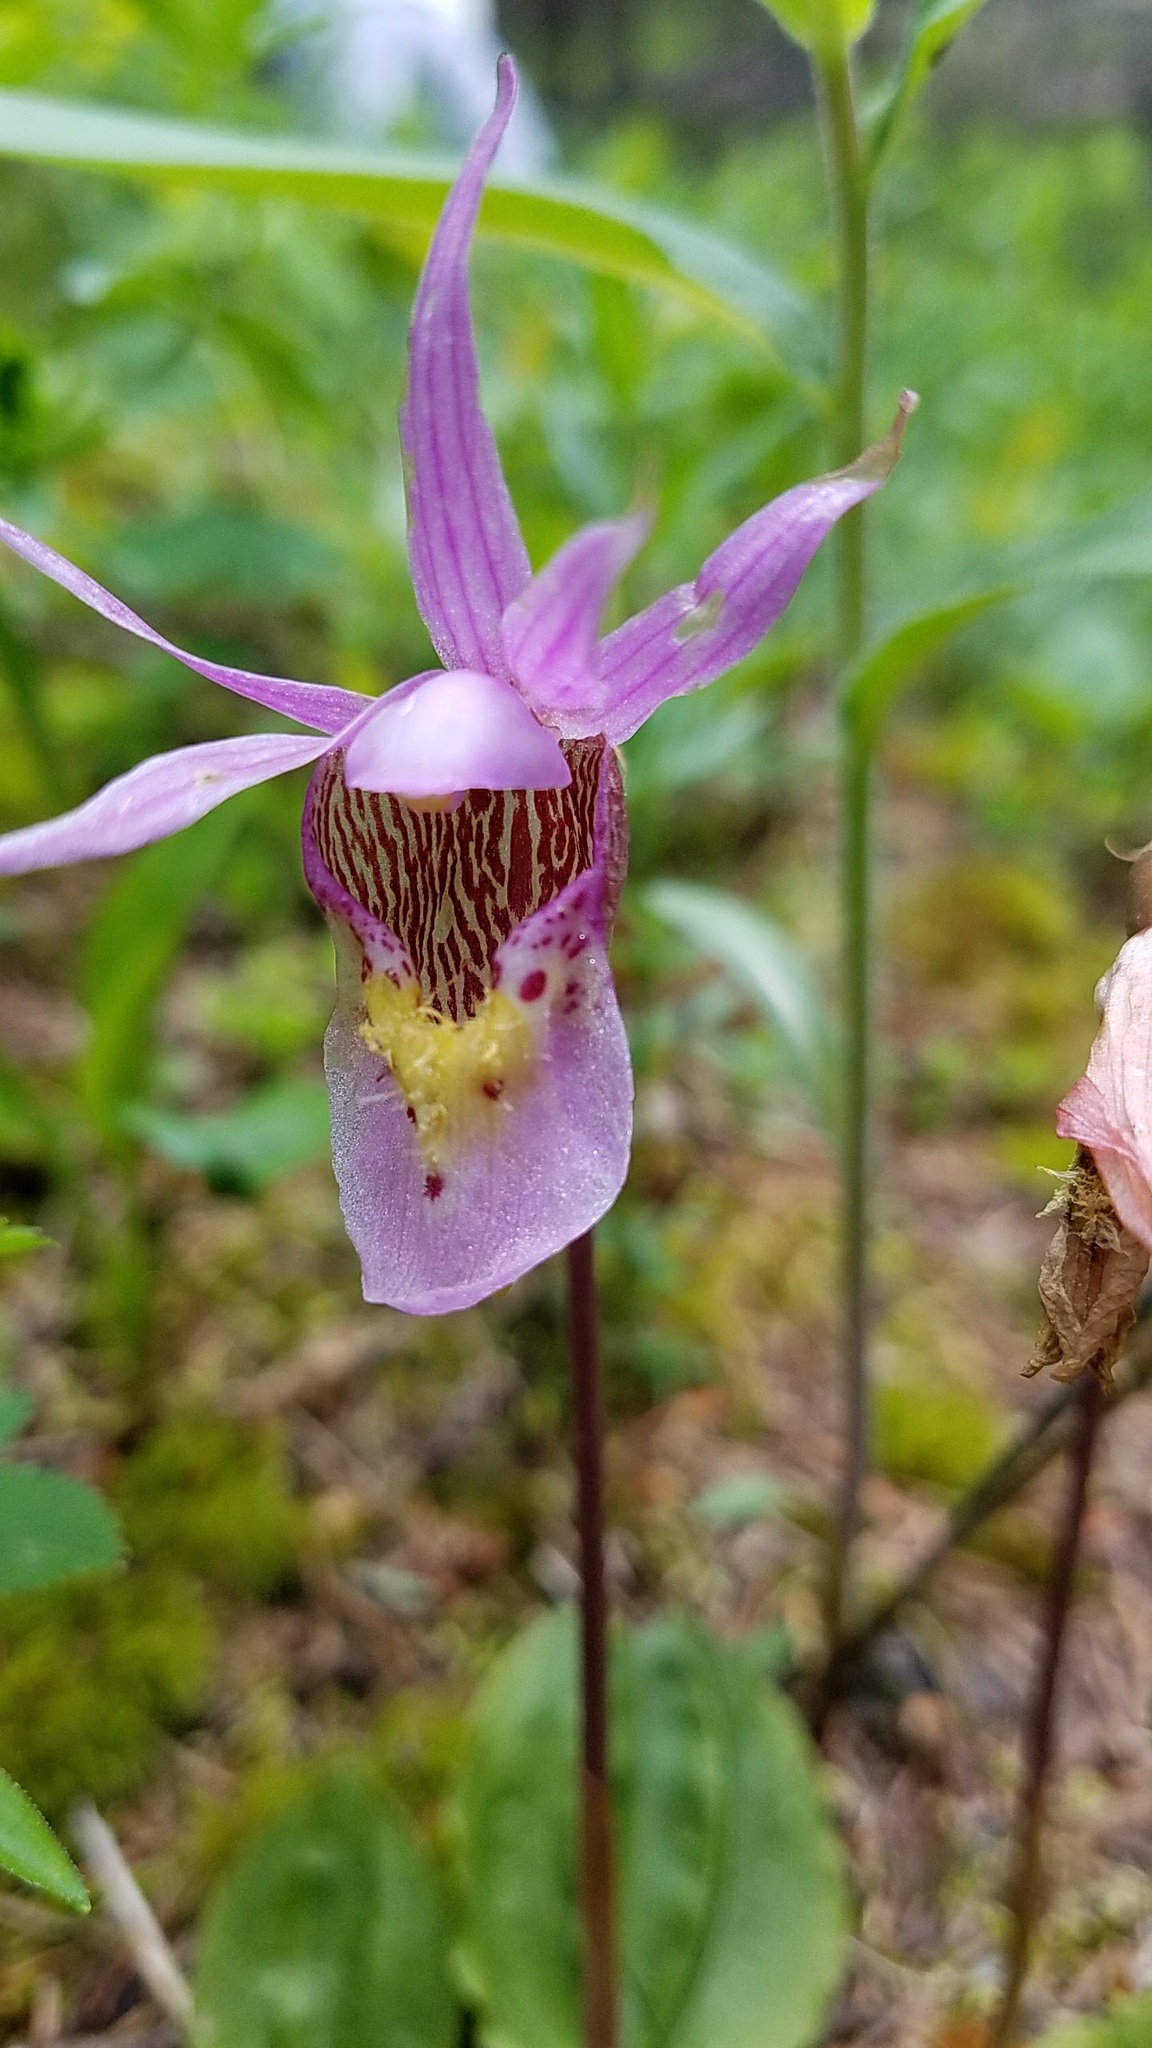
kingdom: Plantae
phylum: Tracheophyta
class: Liliopsida
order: Asparagales
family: Orchidaceae
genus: Calypso
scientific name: Calypso bulbosa
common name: Calypso
